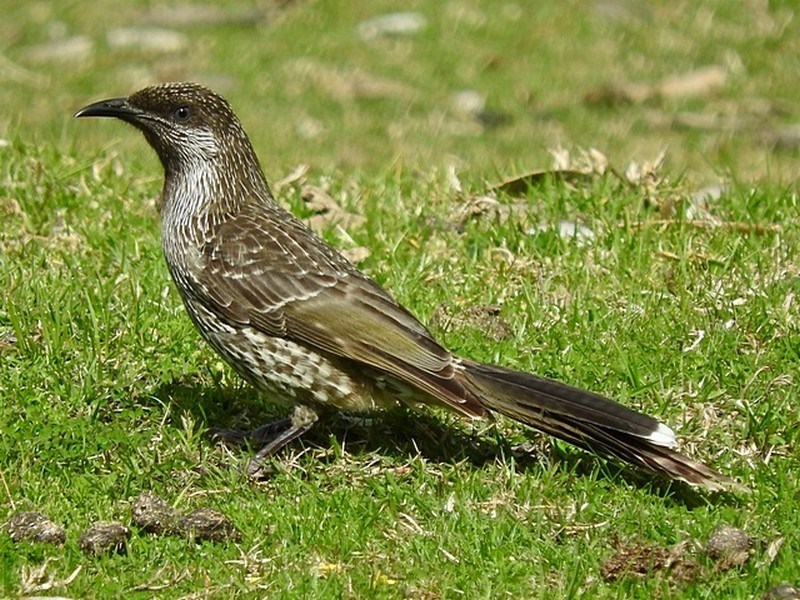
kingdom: Animalia
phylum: Chordata
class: Aves
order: Passeriformes
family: Meliphagidae
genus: Anthochaera
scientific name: Anthochaera chrysoptera
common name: Little wattlebird
